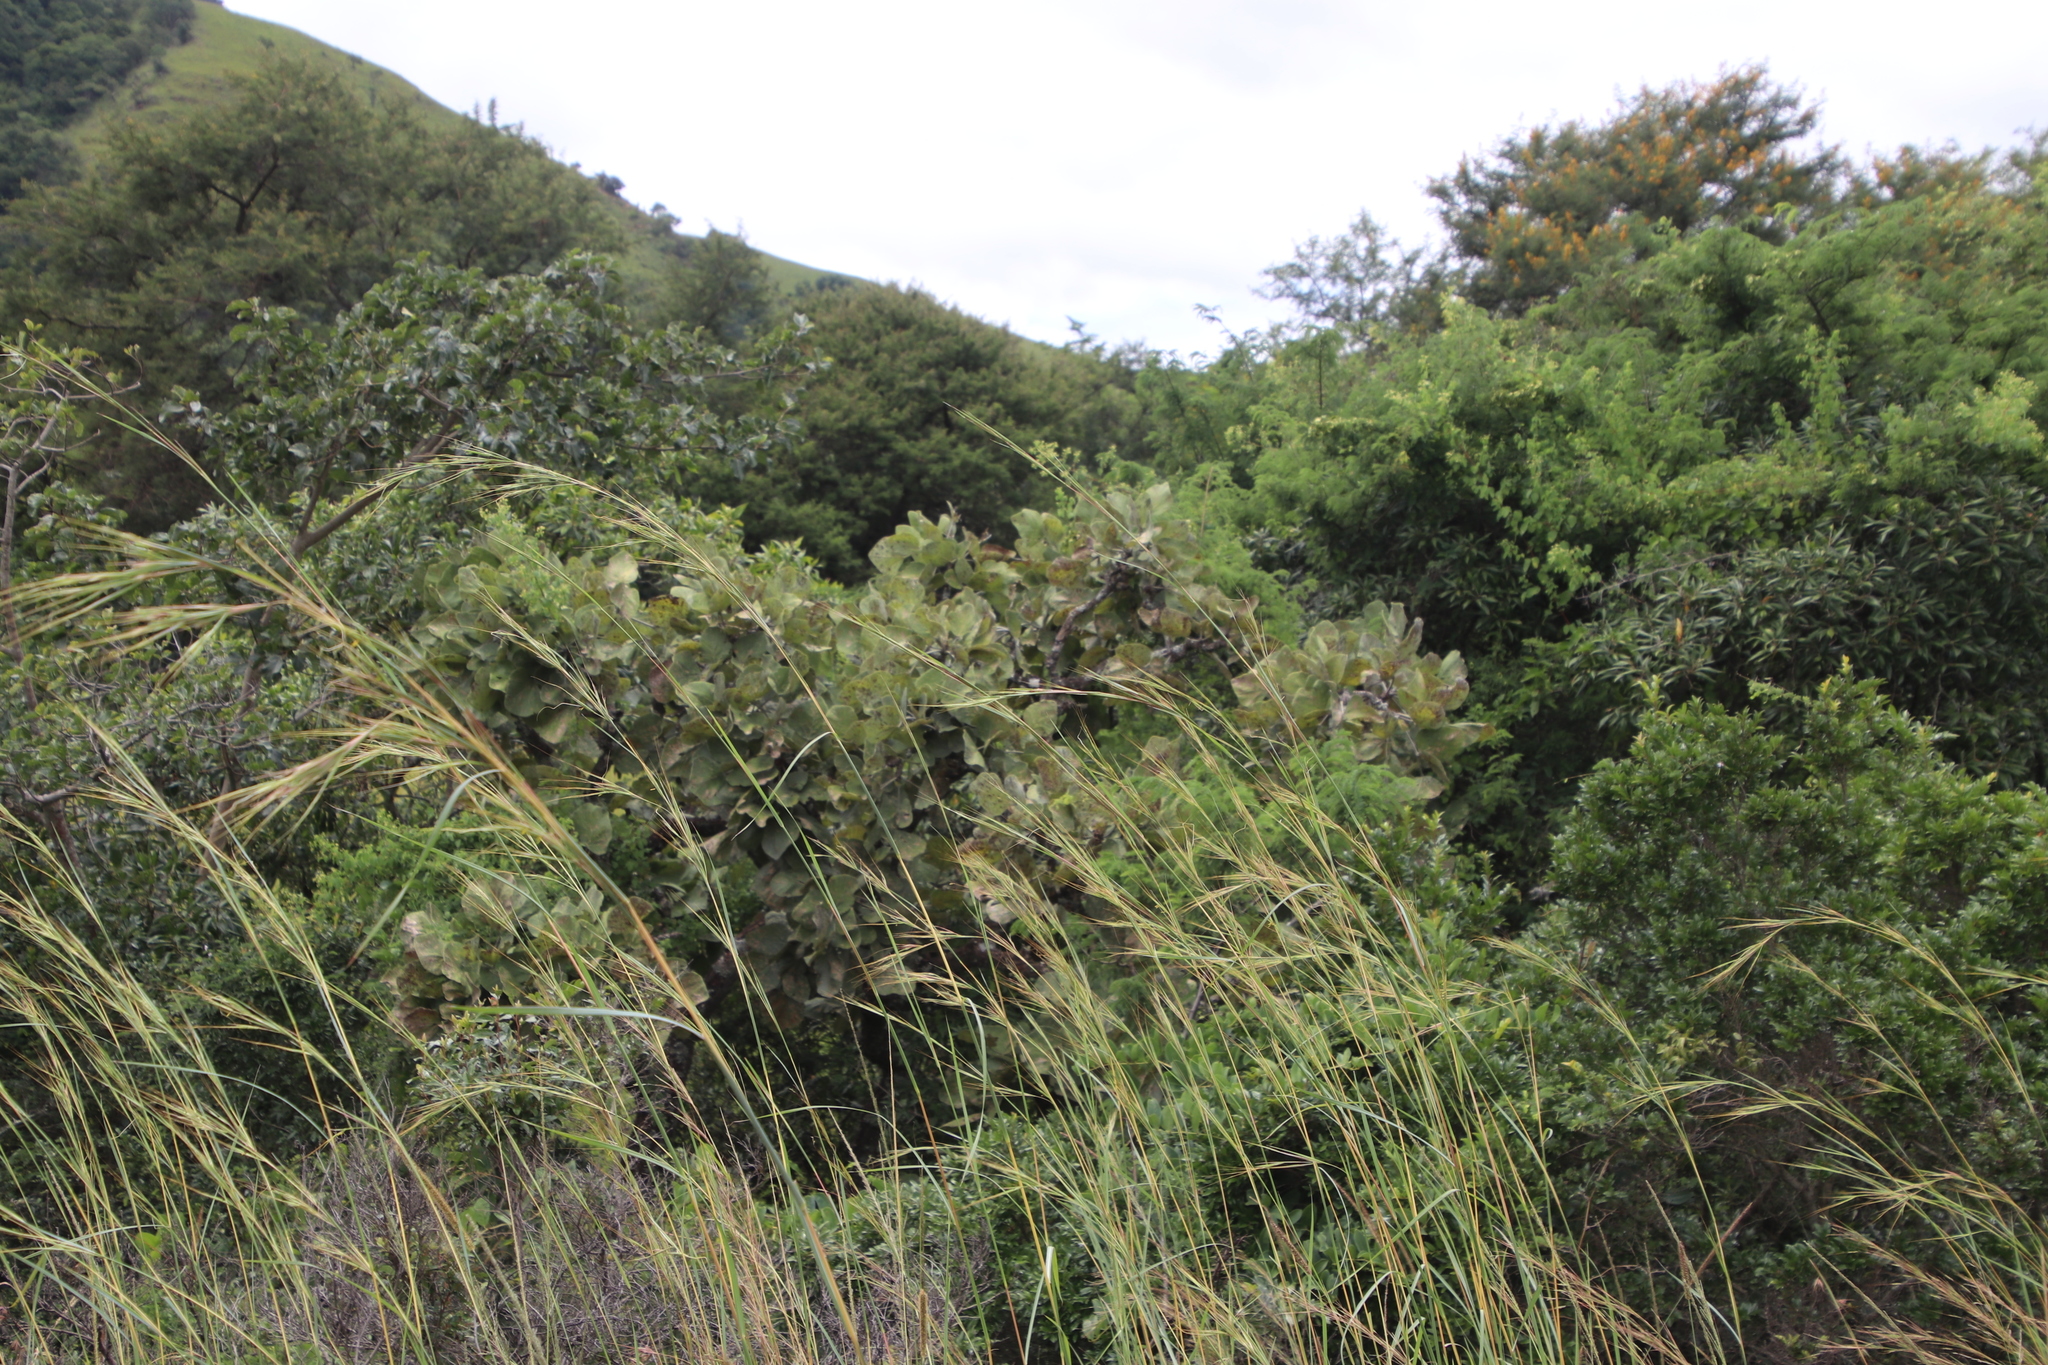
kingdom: Plantae
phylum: Tracheophyta
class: Magnoliopsida
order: Fabales
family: Fabaceae
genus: Erythrina
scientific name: Erythrina latissima
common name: Broad-leaved coral tree
